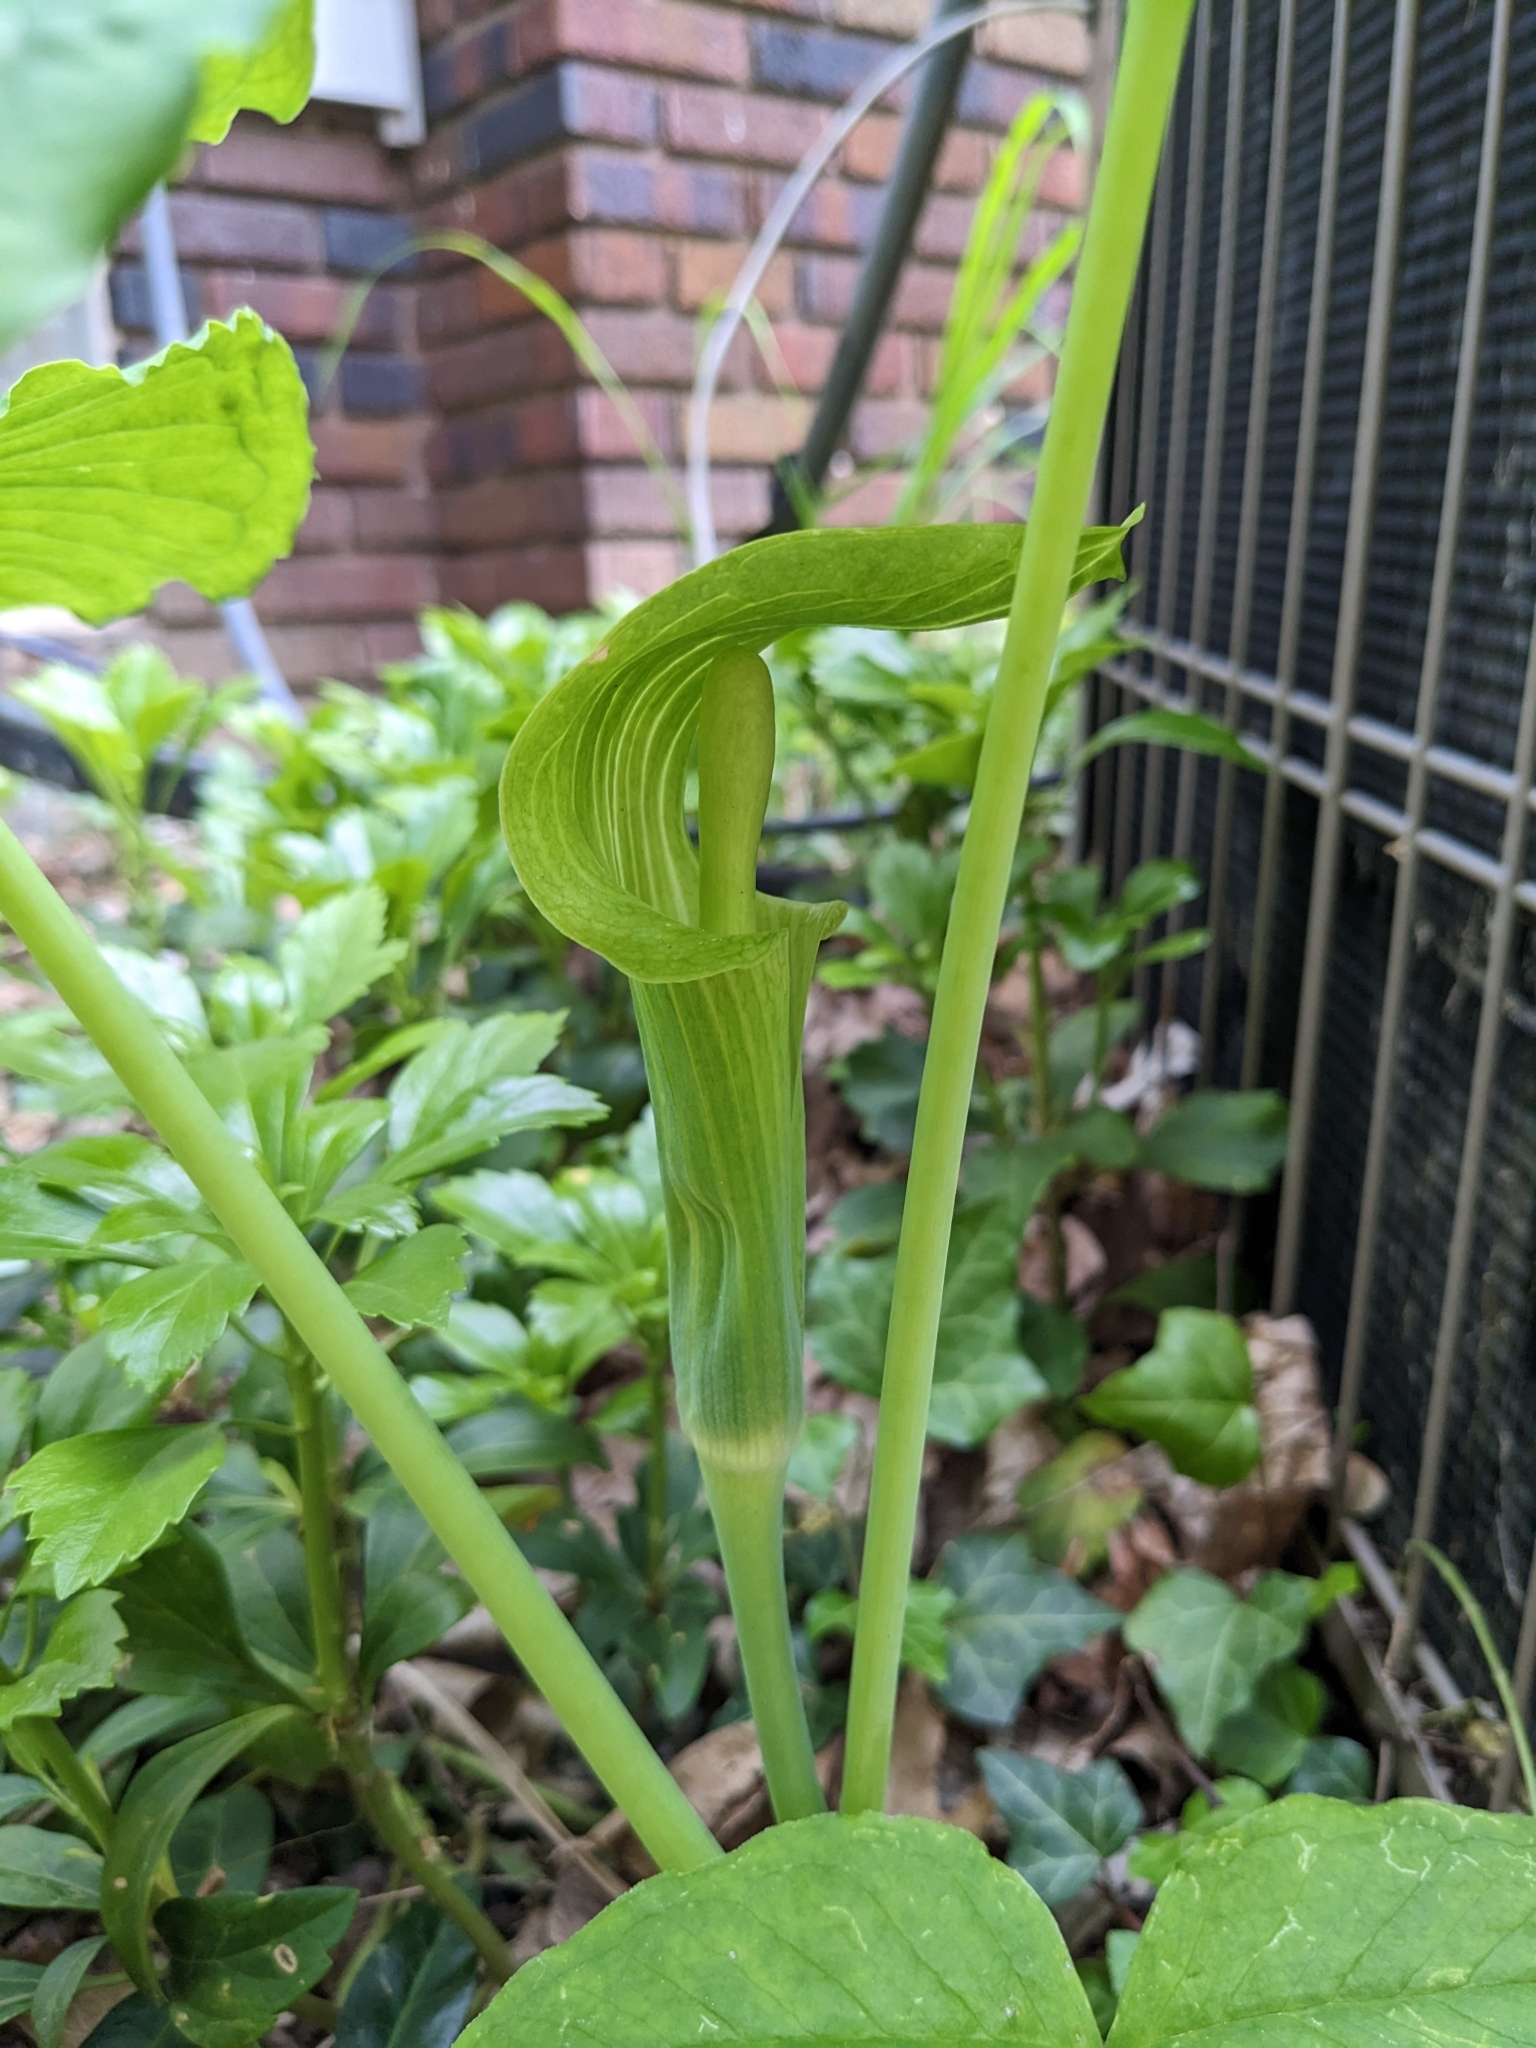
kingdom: Plantae
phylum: Tracheophyta
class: Liliopsida
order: Alismatales
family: Araceae
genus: Arisaema
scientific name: Arisaema triphyllum
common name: Jack-in-the-pulpit
